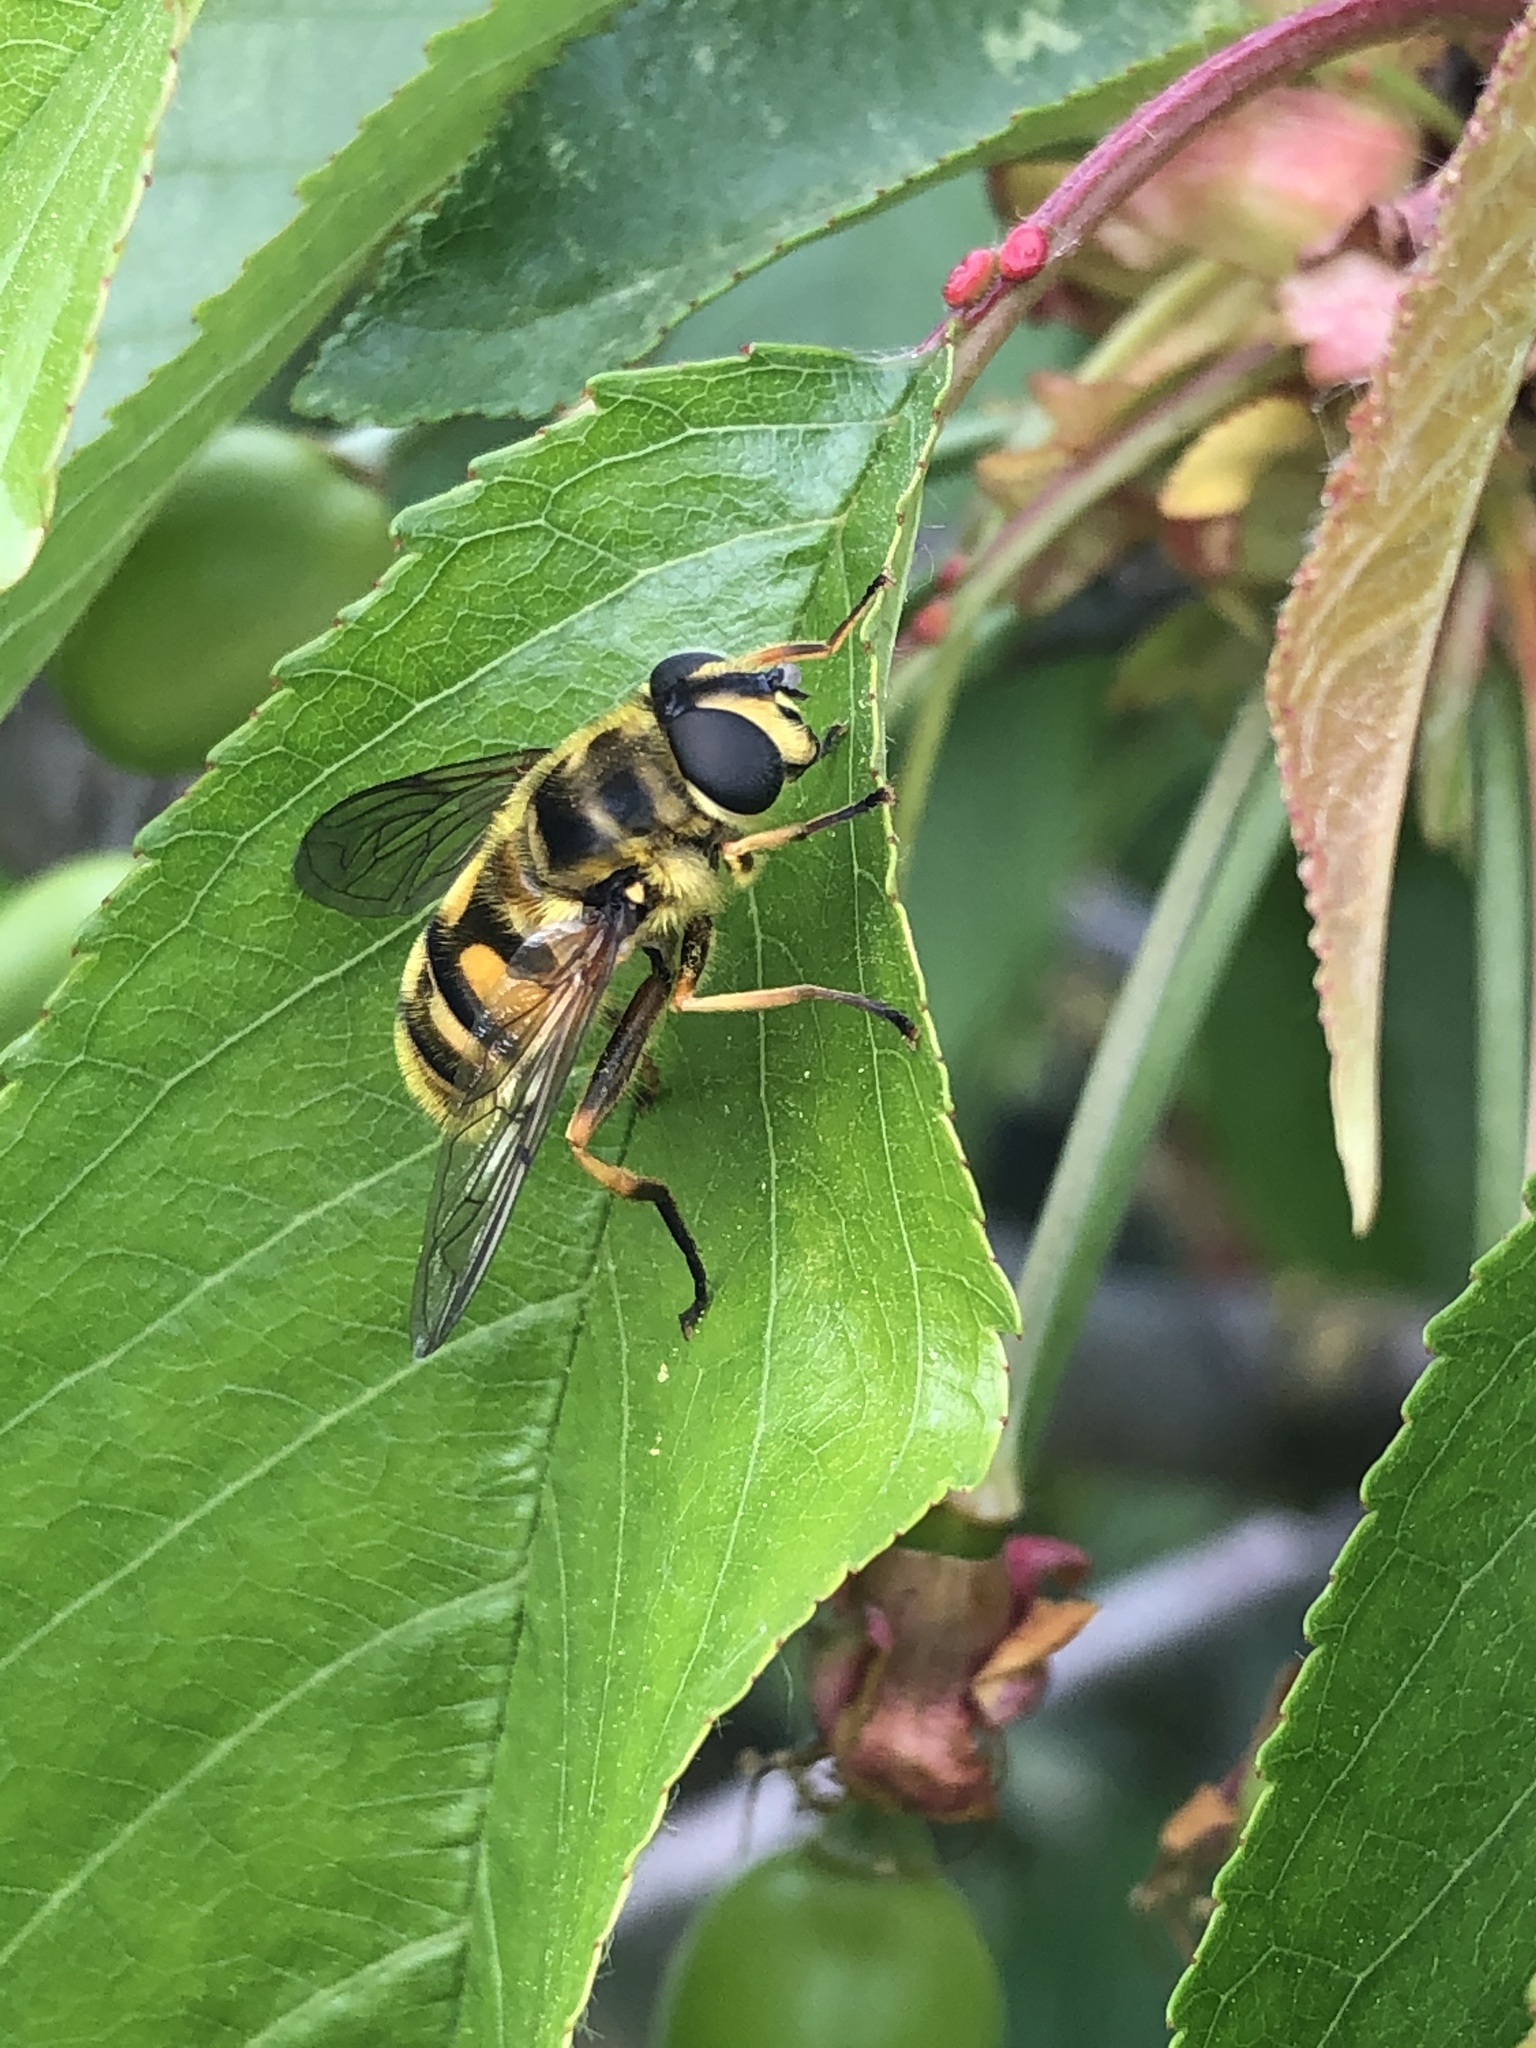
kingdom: Animalia
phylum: Arthropoda
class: Insecta
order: Diptera
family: Syrphidae
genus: Myathropa
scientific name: Myathropa florea
